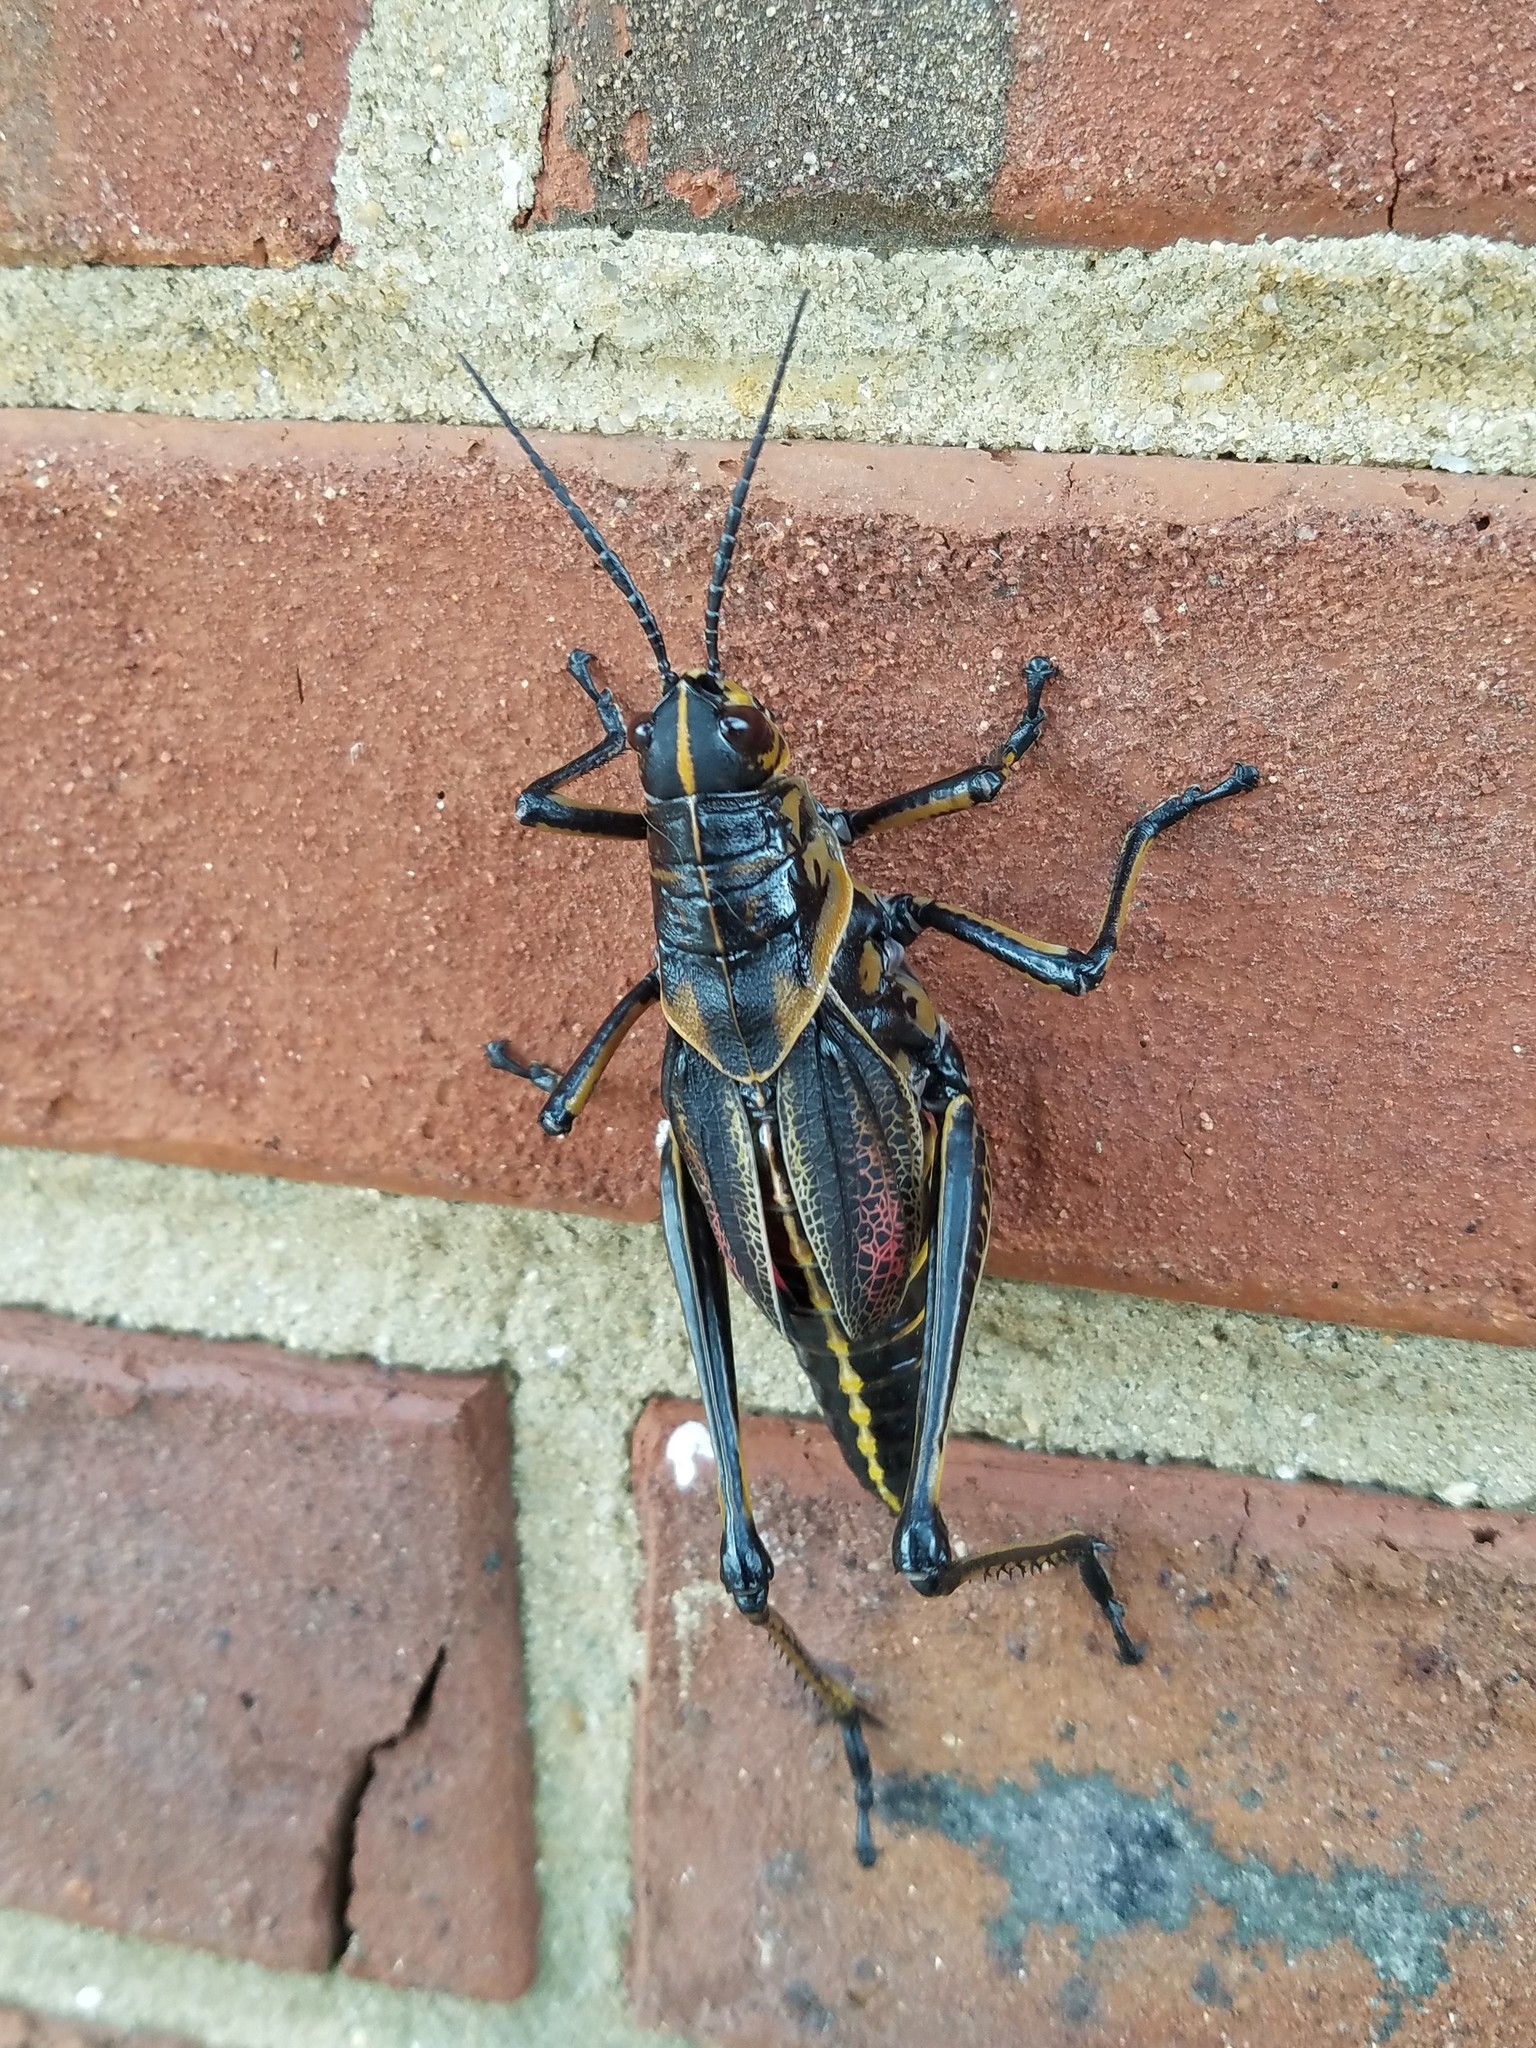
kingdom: Animalia
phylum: Arthropoda
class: Insecta
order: Orthoptera
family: Romaleidae
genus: Romalea
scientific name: Romalea microptera
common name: Eastern lubber grasshopper
